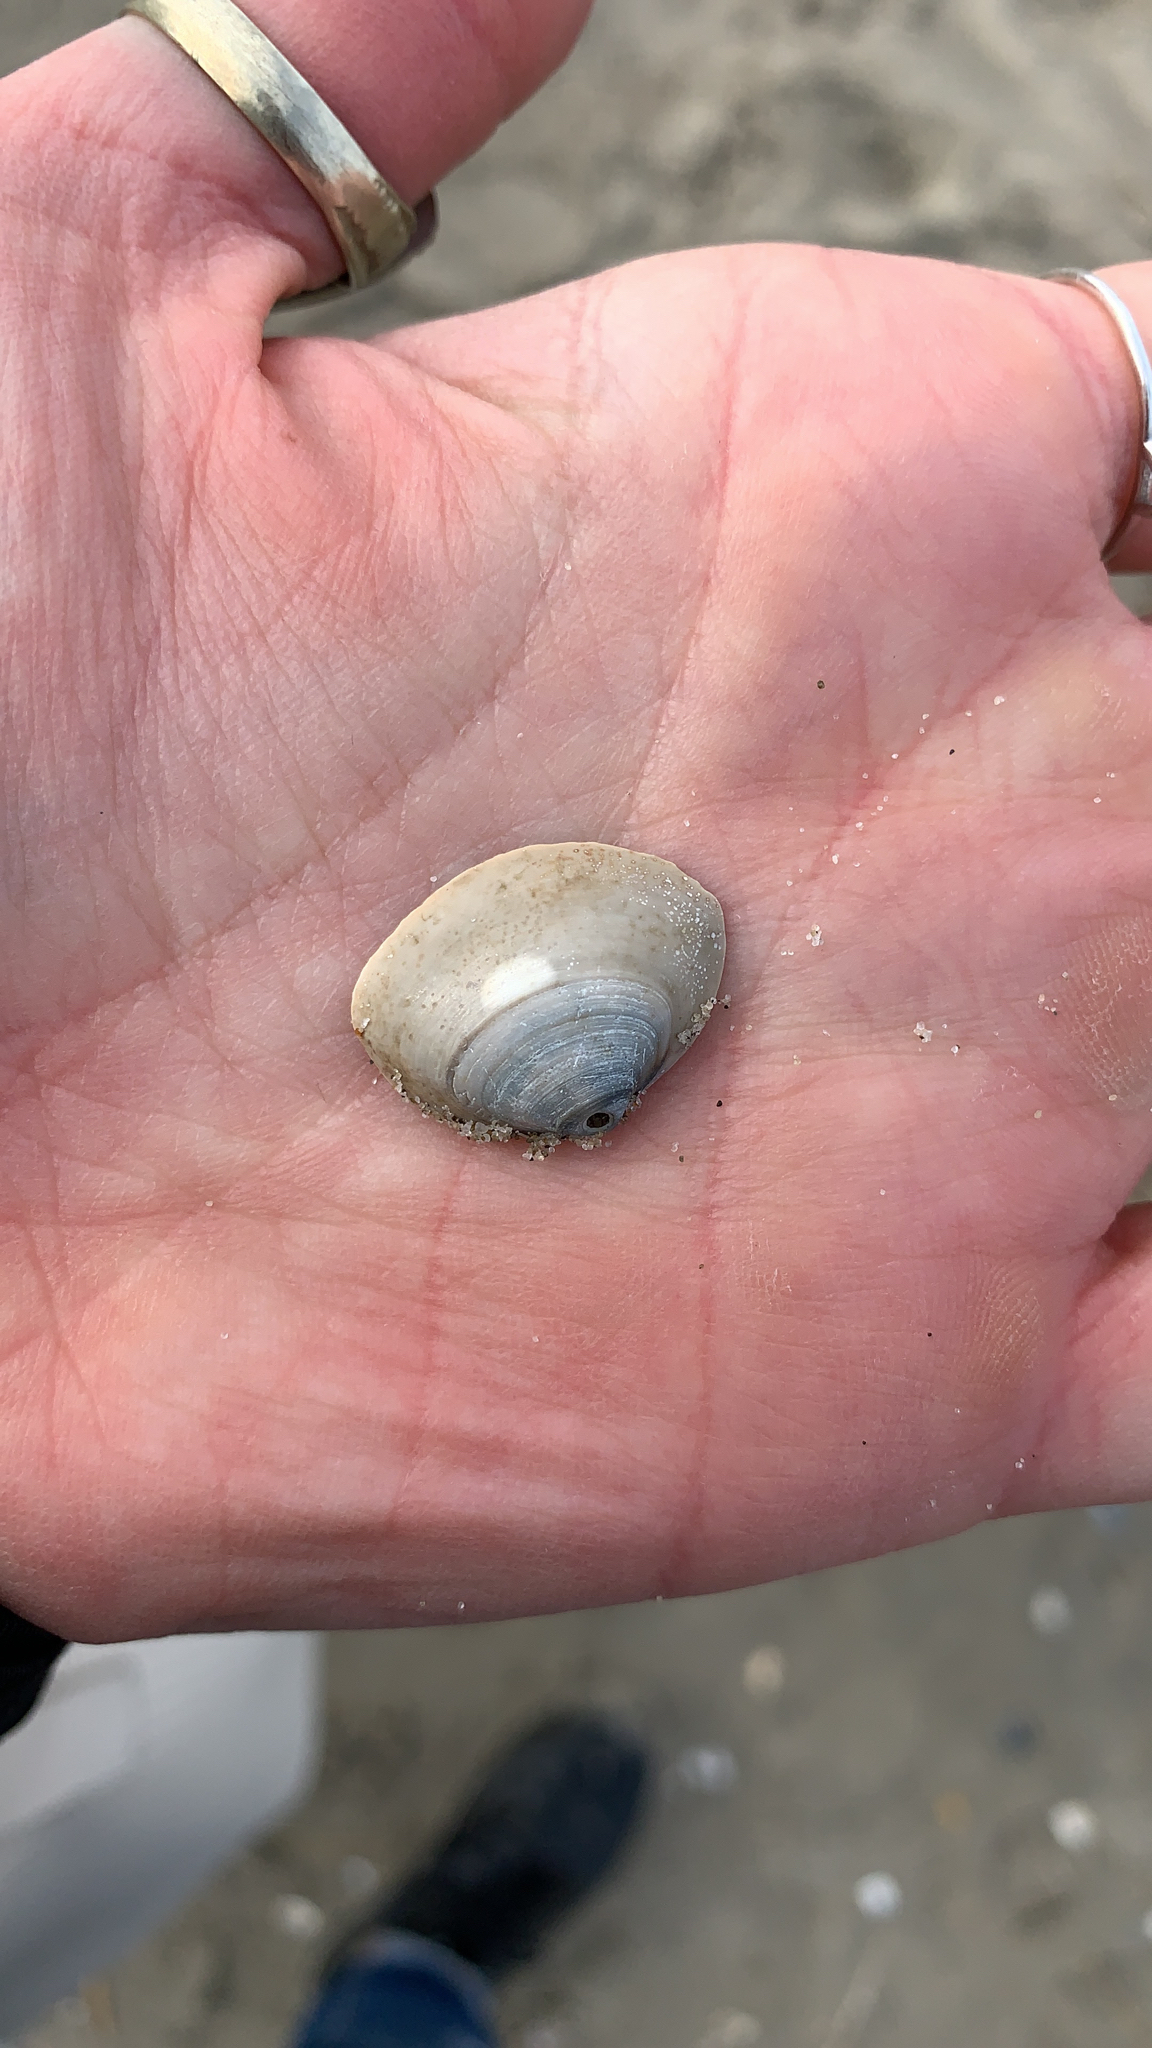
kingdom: Animalia
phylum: Mollusca
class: Bivalvia
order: Venerida
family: Mactridae
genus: Spisula
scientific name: Spisula solidissima
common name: Atlantic surf clam
